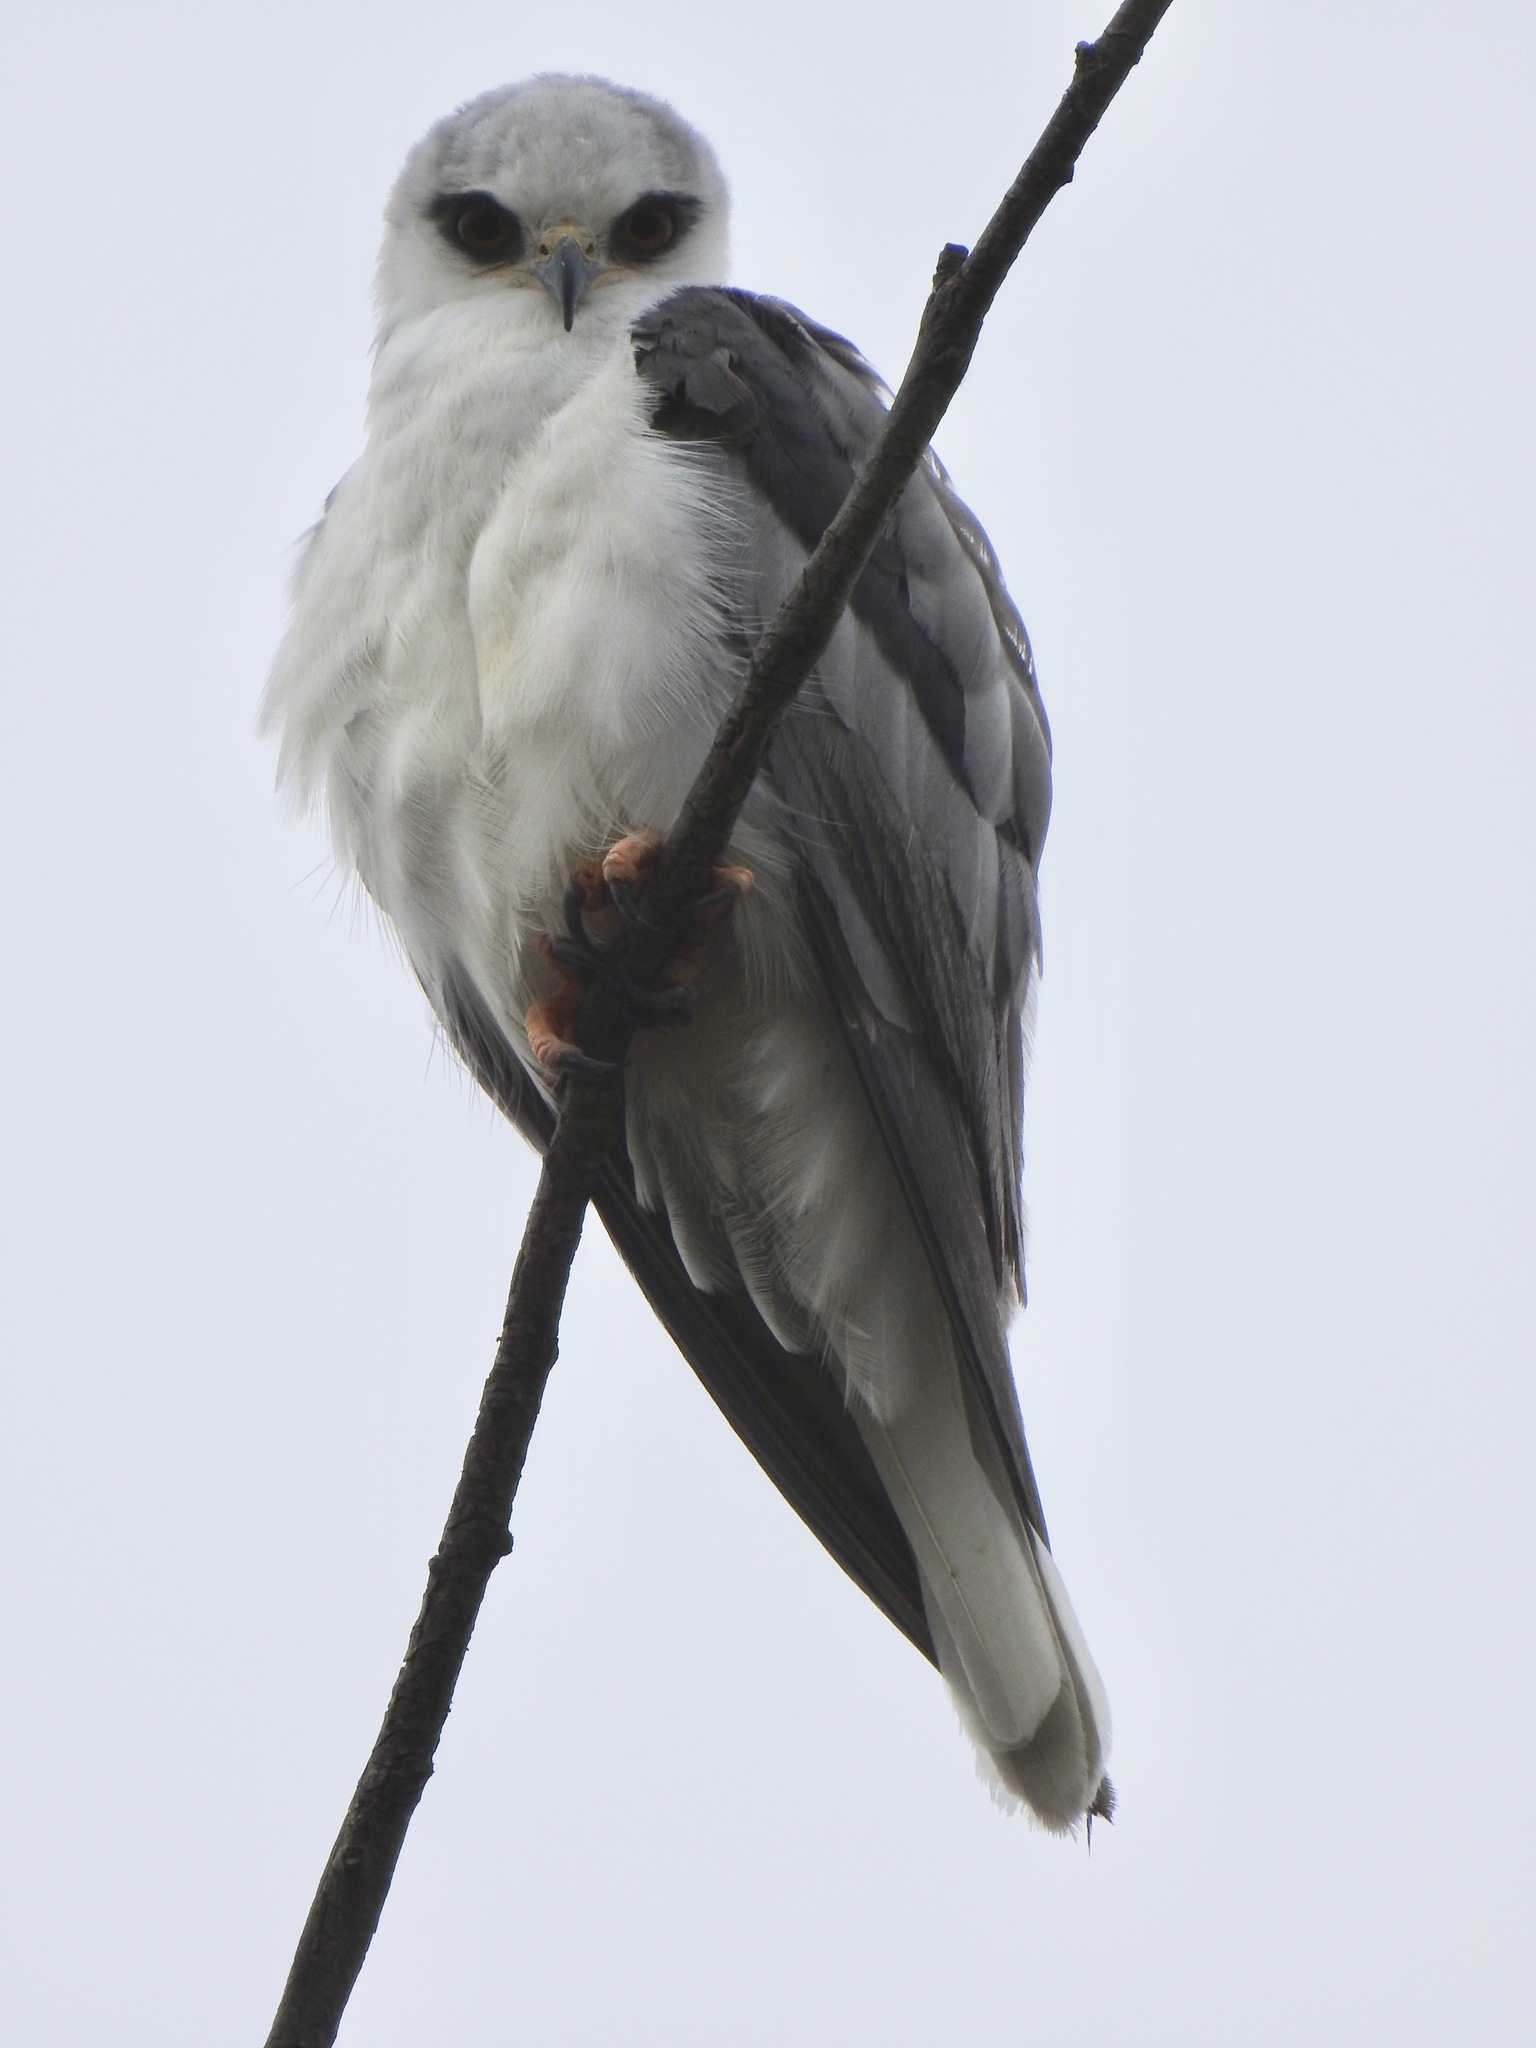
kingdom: Animalia
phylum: Chordata
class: Aves
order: Accipitriformes
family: Accipitridae
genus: Elanus
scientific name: Elanus leucurus
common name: White-tailed kite
